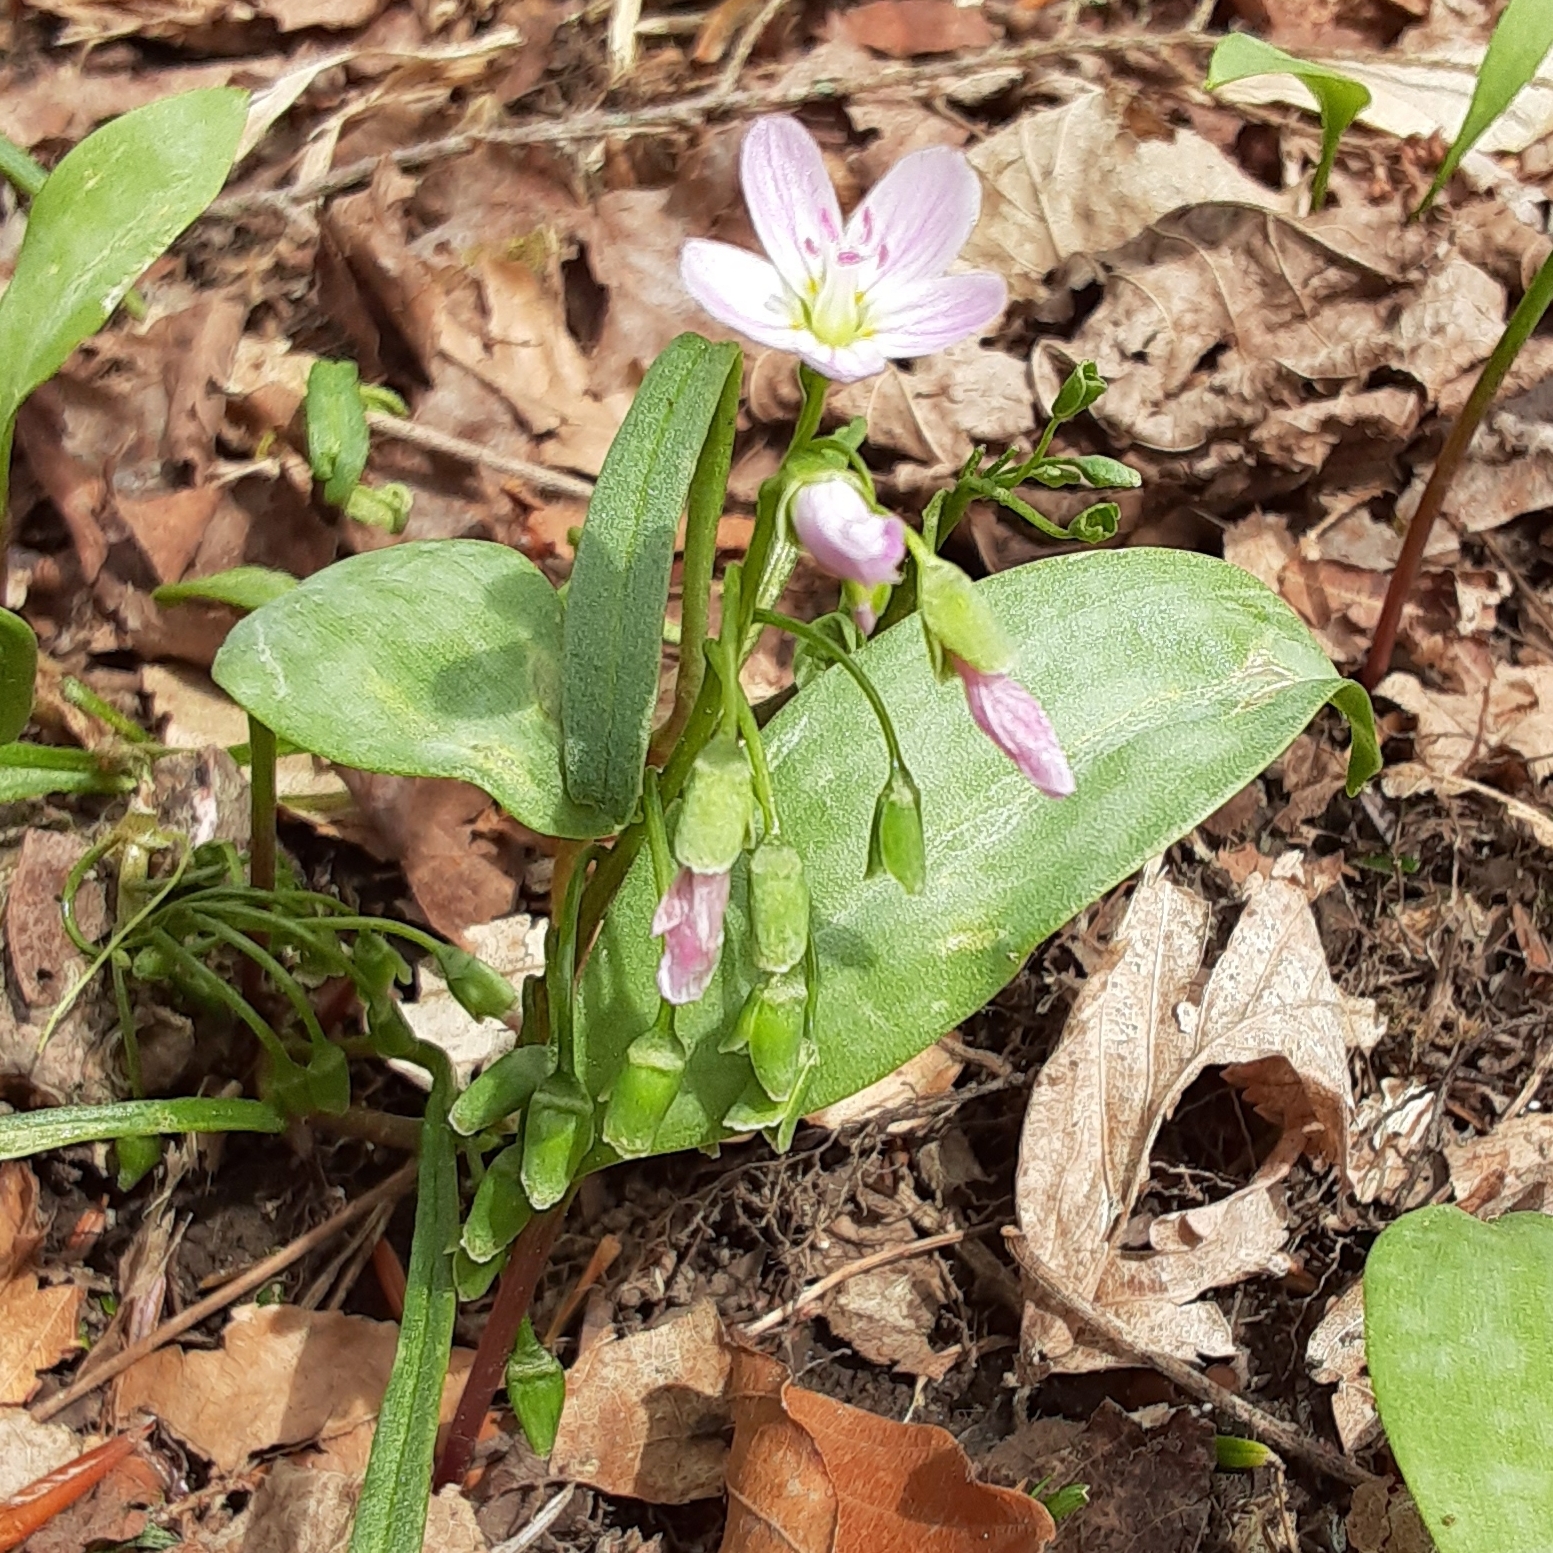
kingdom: Plantae
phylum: Tracheophyta
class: Magnoliopsida
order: Caryophyllales
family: Montiaceae
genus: Claytonia
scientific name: Claytonia virginica
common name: Virginia springbeauty
